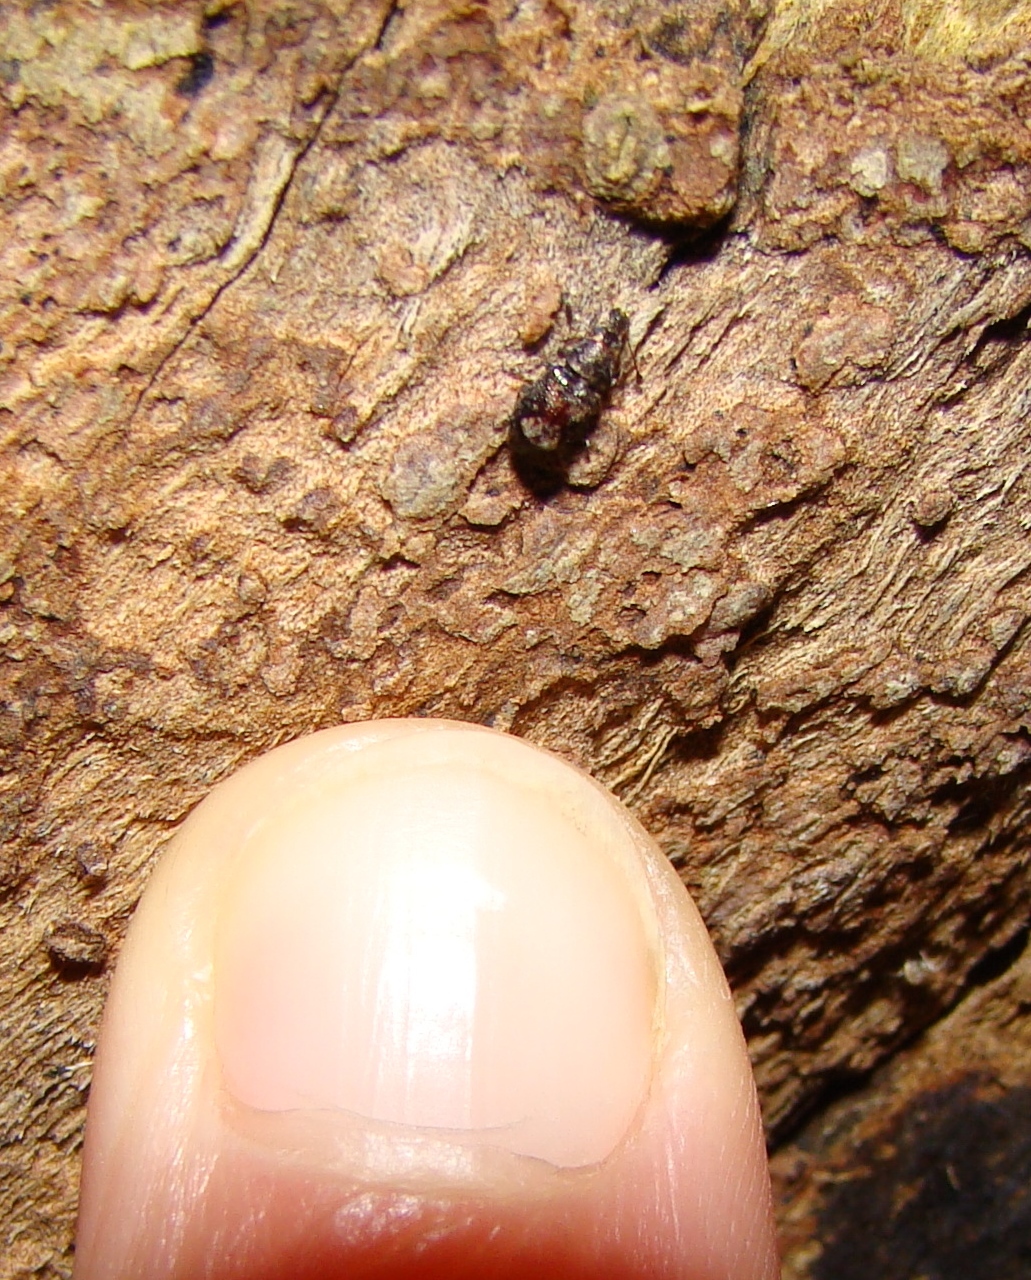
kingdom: Animalia
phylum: Arthropoda
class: Insecta
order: Coleoptera
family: Anthribidae
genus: Sharpius
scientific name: Sharpius
